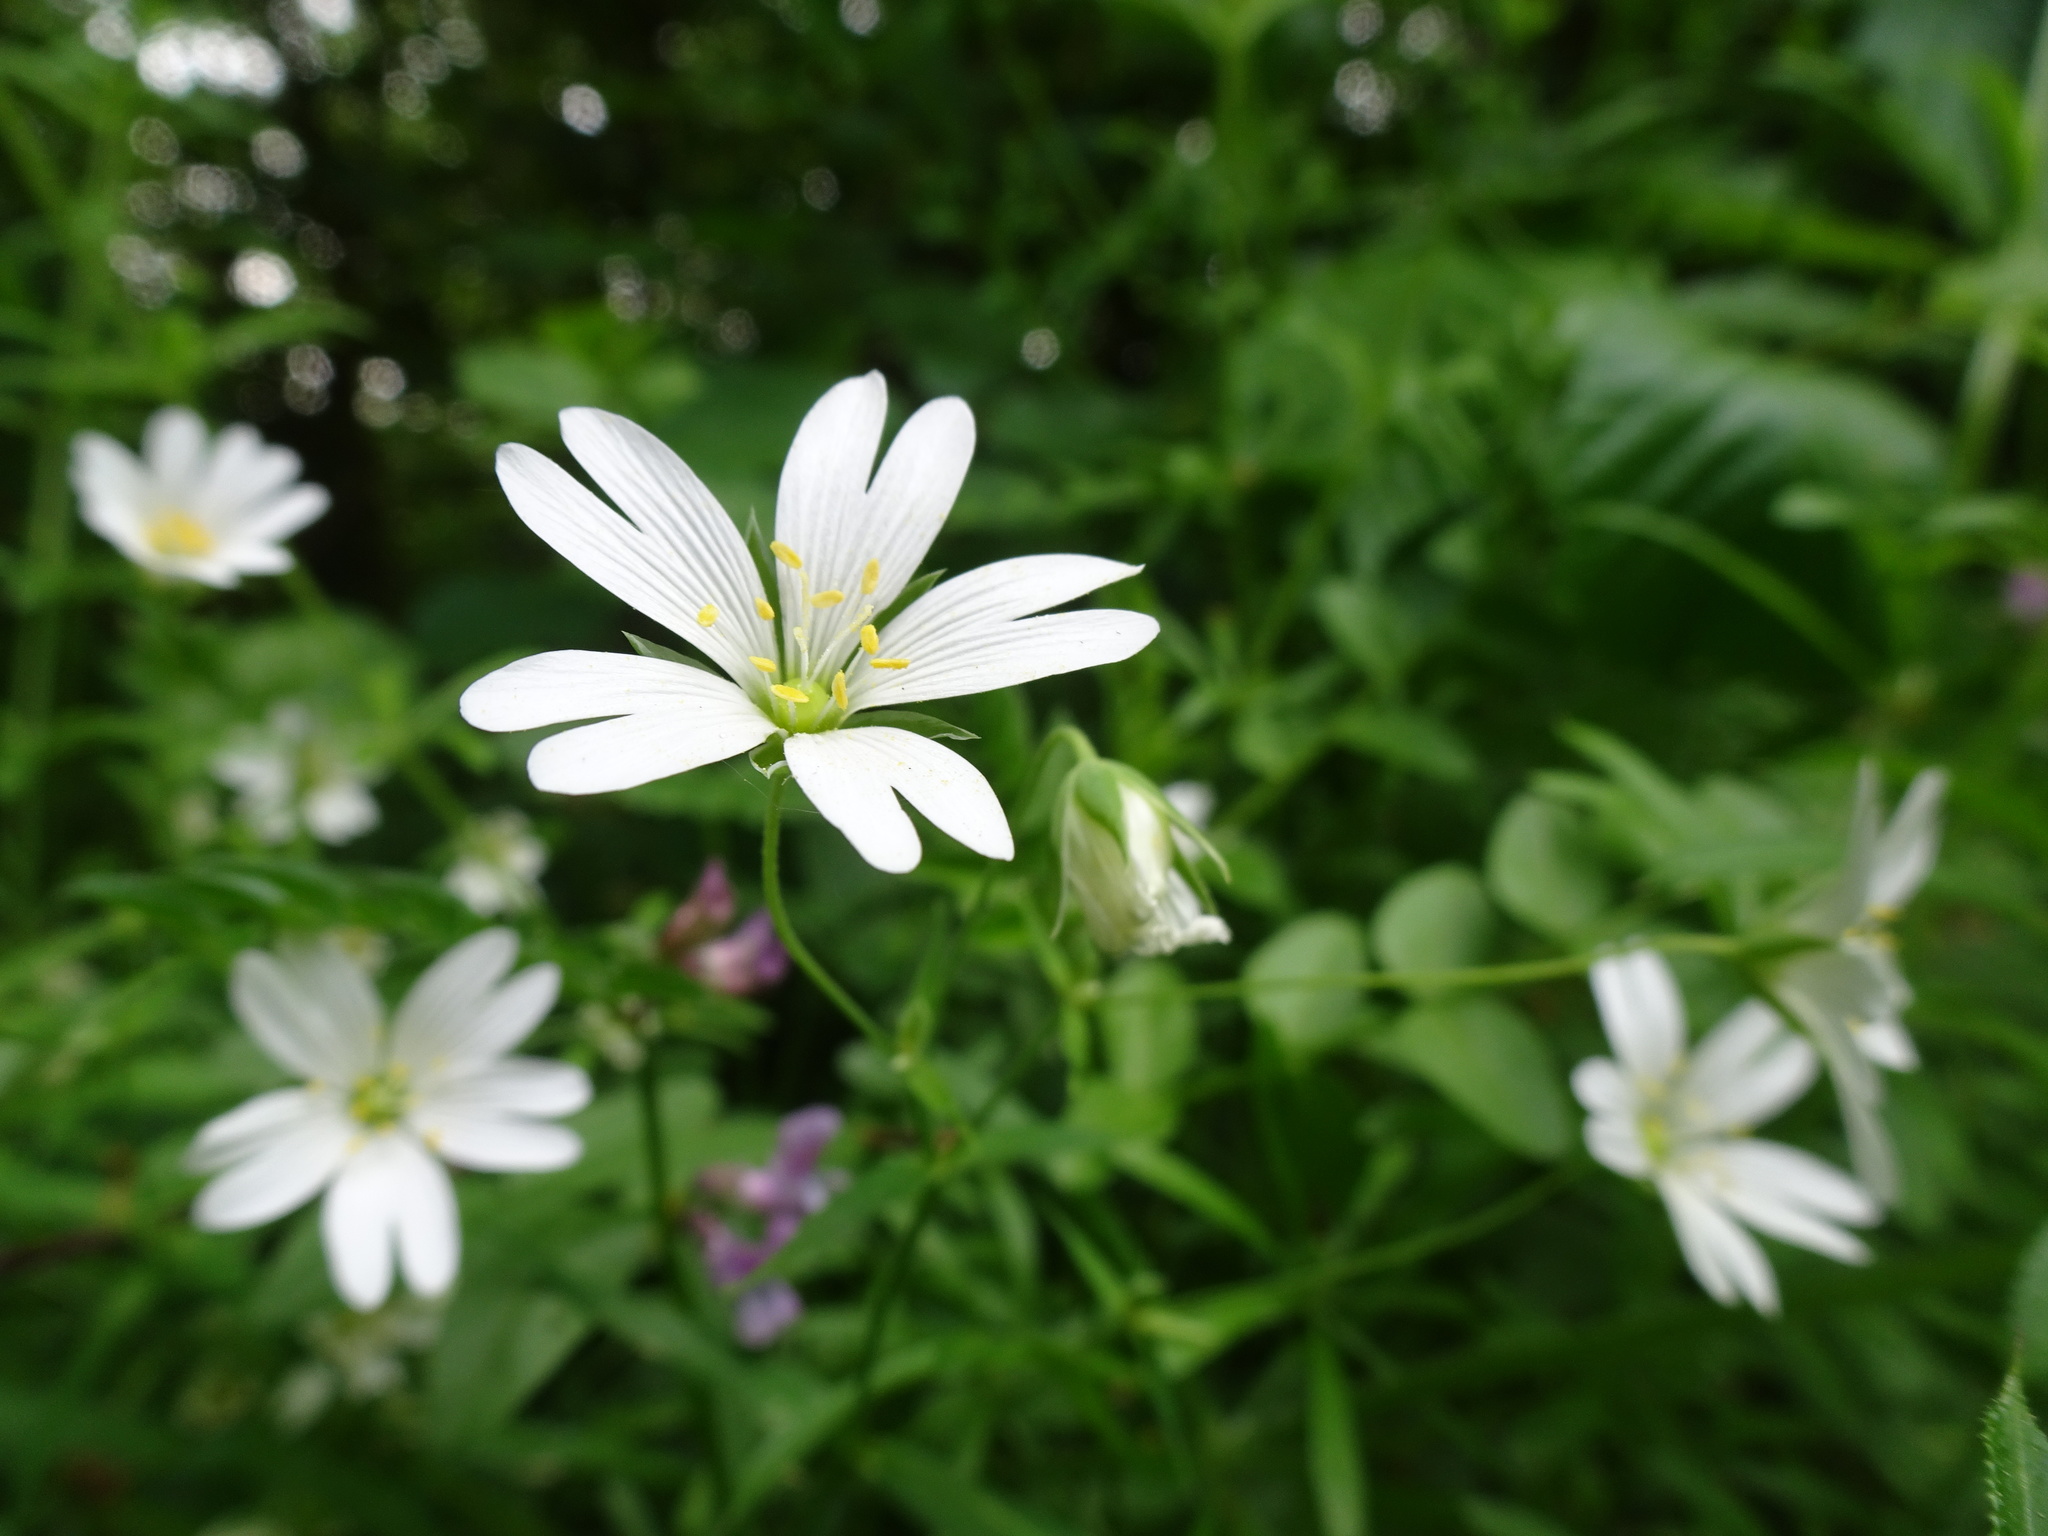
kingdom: Plantae
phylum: Tracheophyta
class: Magnoliopsida
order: Caryophyllales
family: Caryophyllaceae
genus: Rabelera
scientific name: Rabelera holostea
